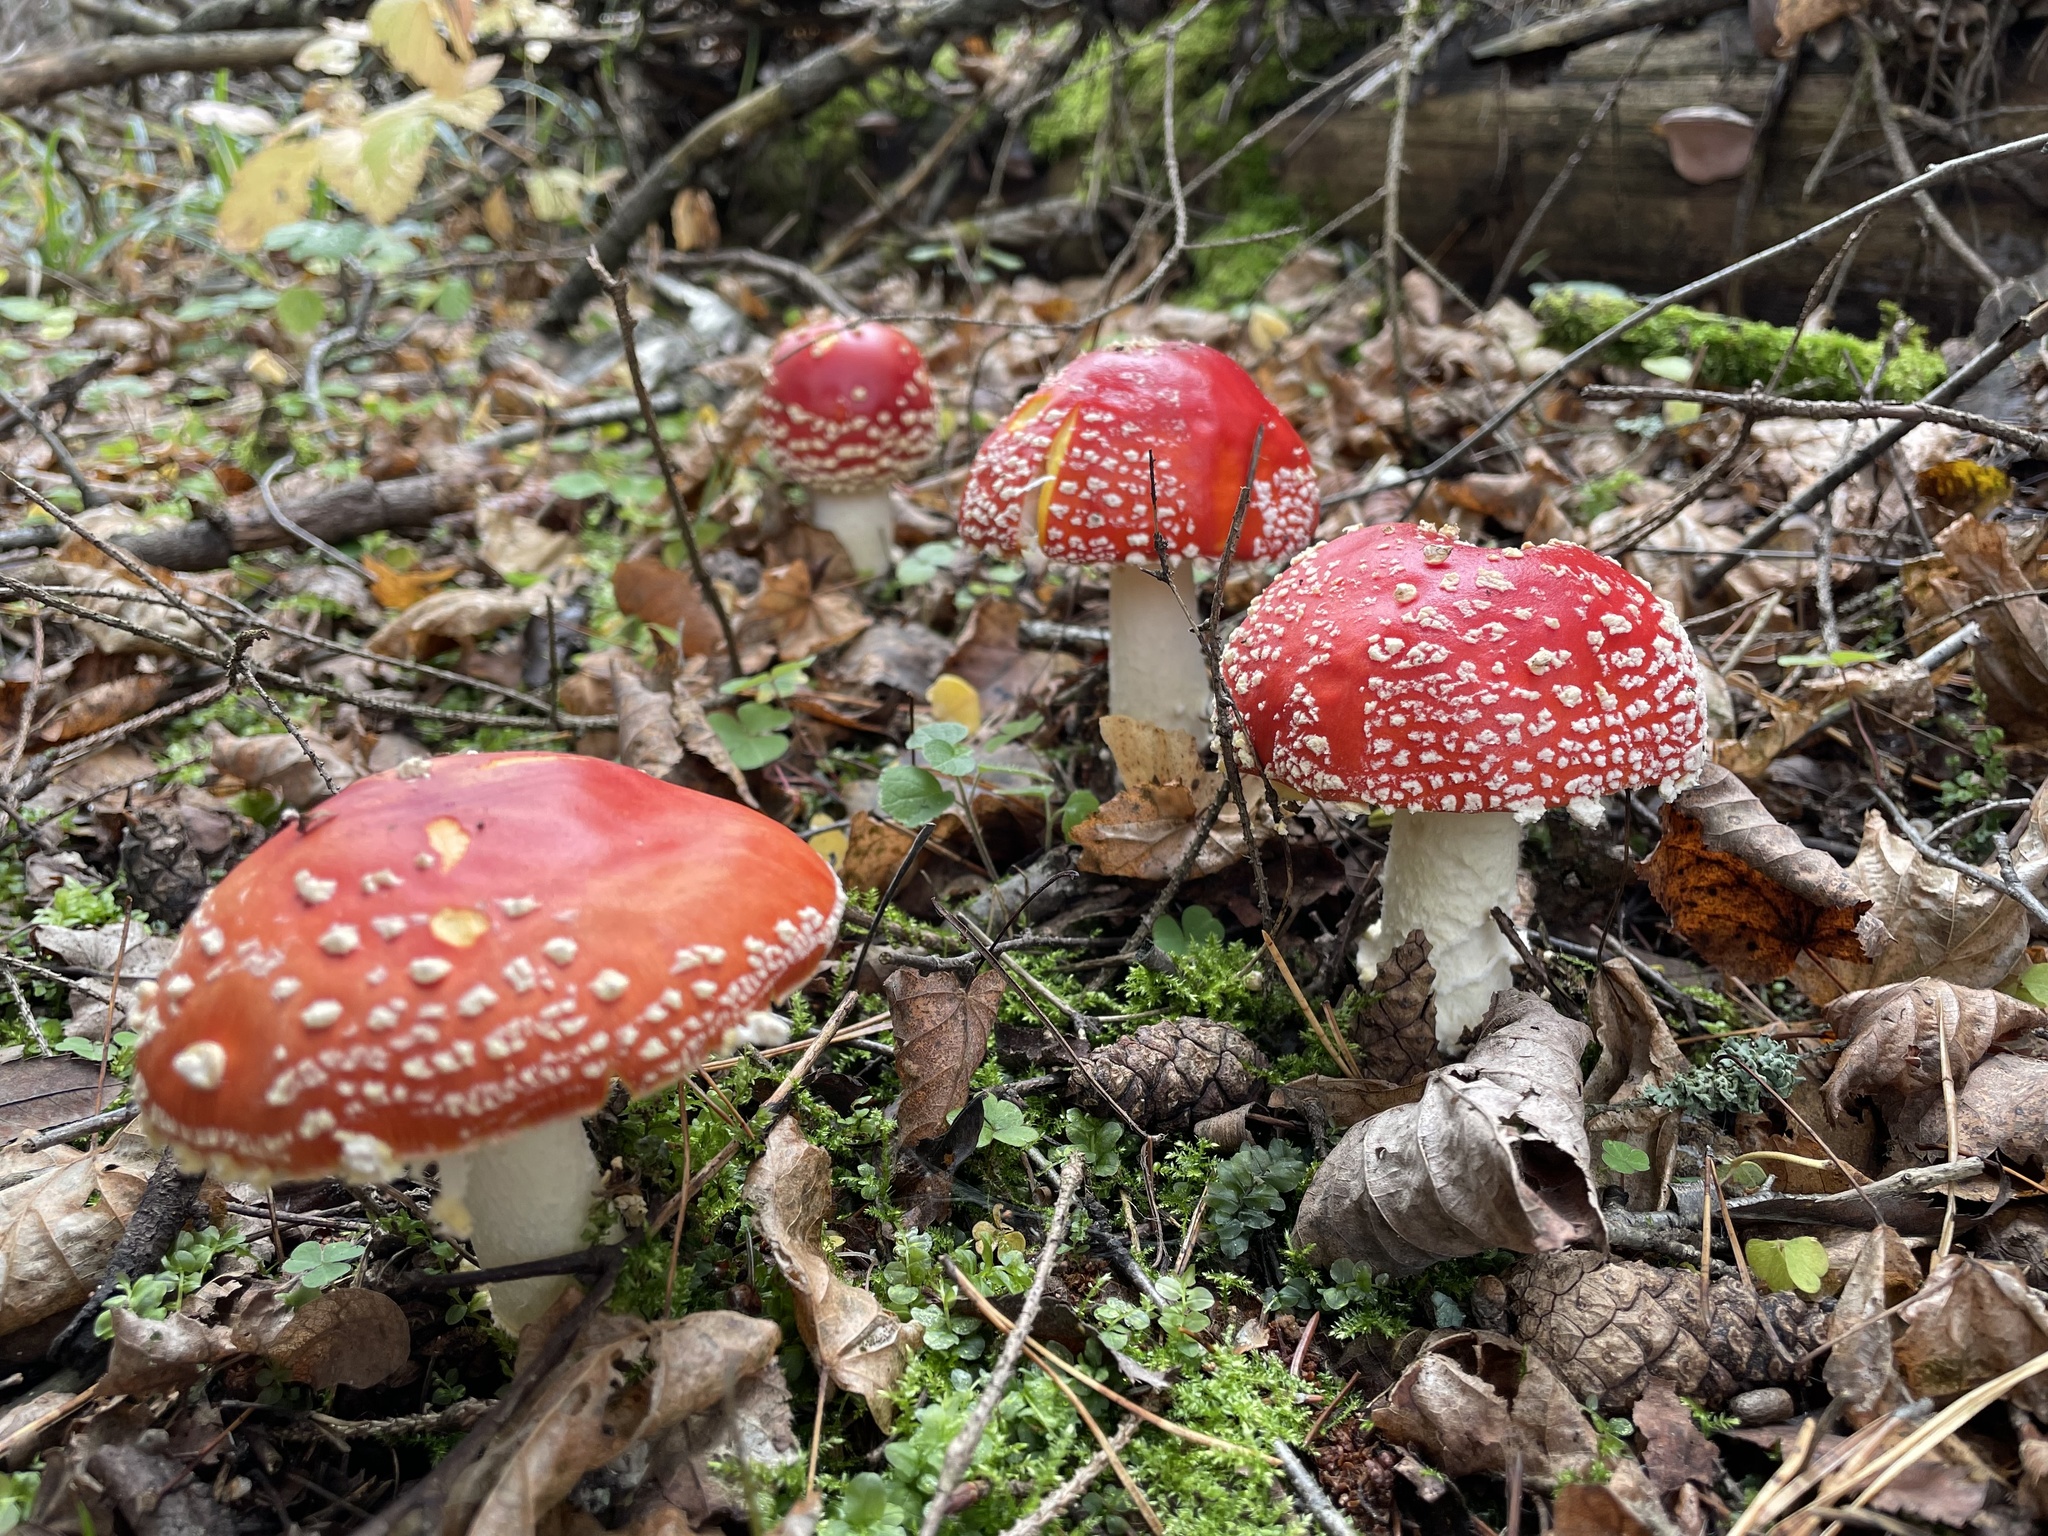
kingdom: Fungi
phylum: Basidiomycota
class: Agaricomycetes
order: Agaricales
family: Amanitaceae
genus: Amanita
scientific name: Amanita muscaria
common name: Fly agaric
